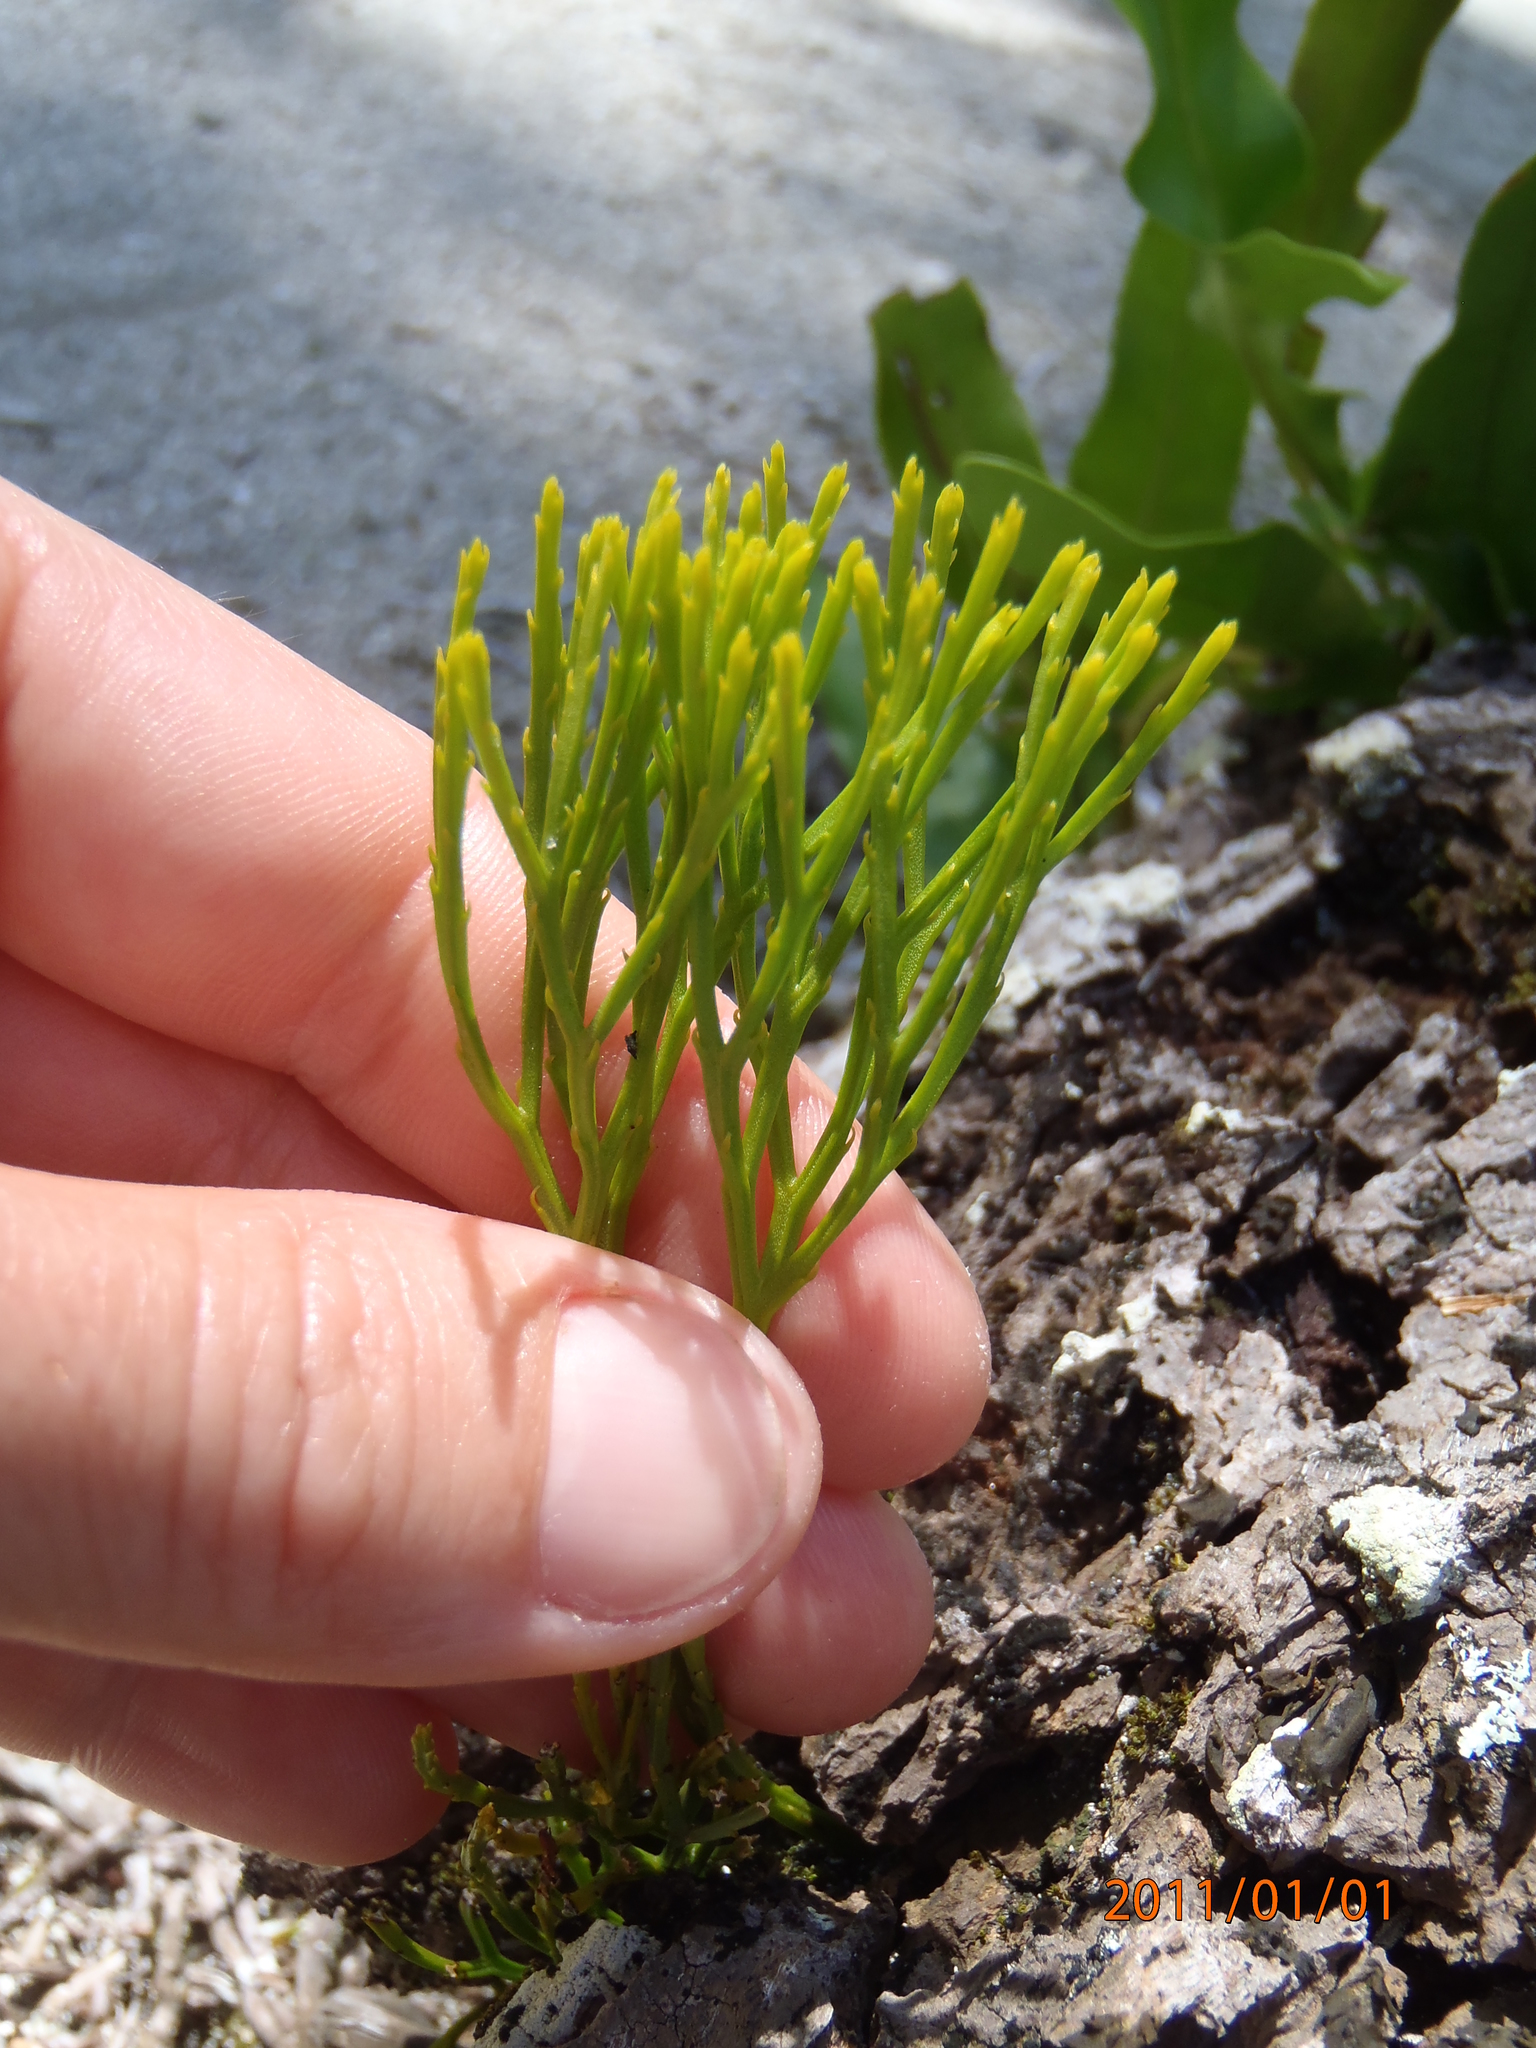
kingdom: Plantae
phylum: Tracheophyta
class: Polypodiopsida
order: Psilotales
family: Psilotaceae
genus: Psilotum
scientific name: Psilotum nudum
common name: Skeleton fork fern
